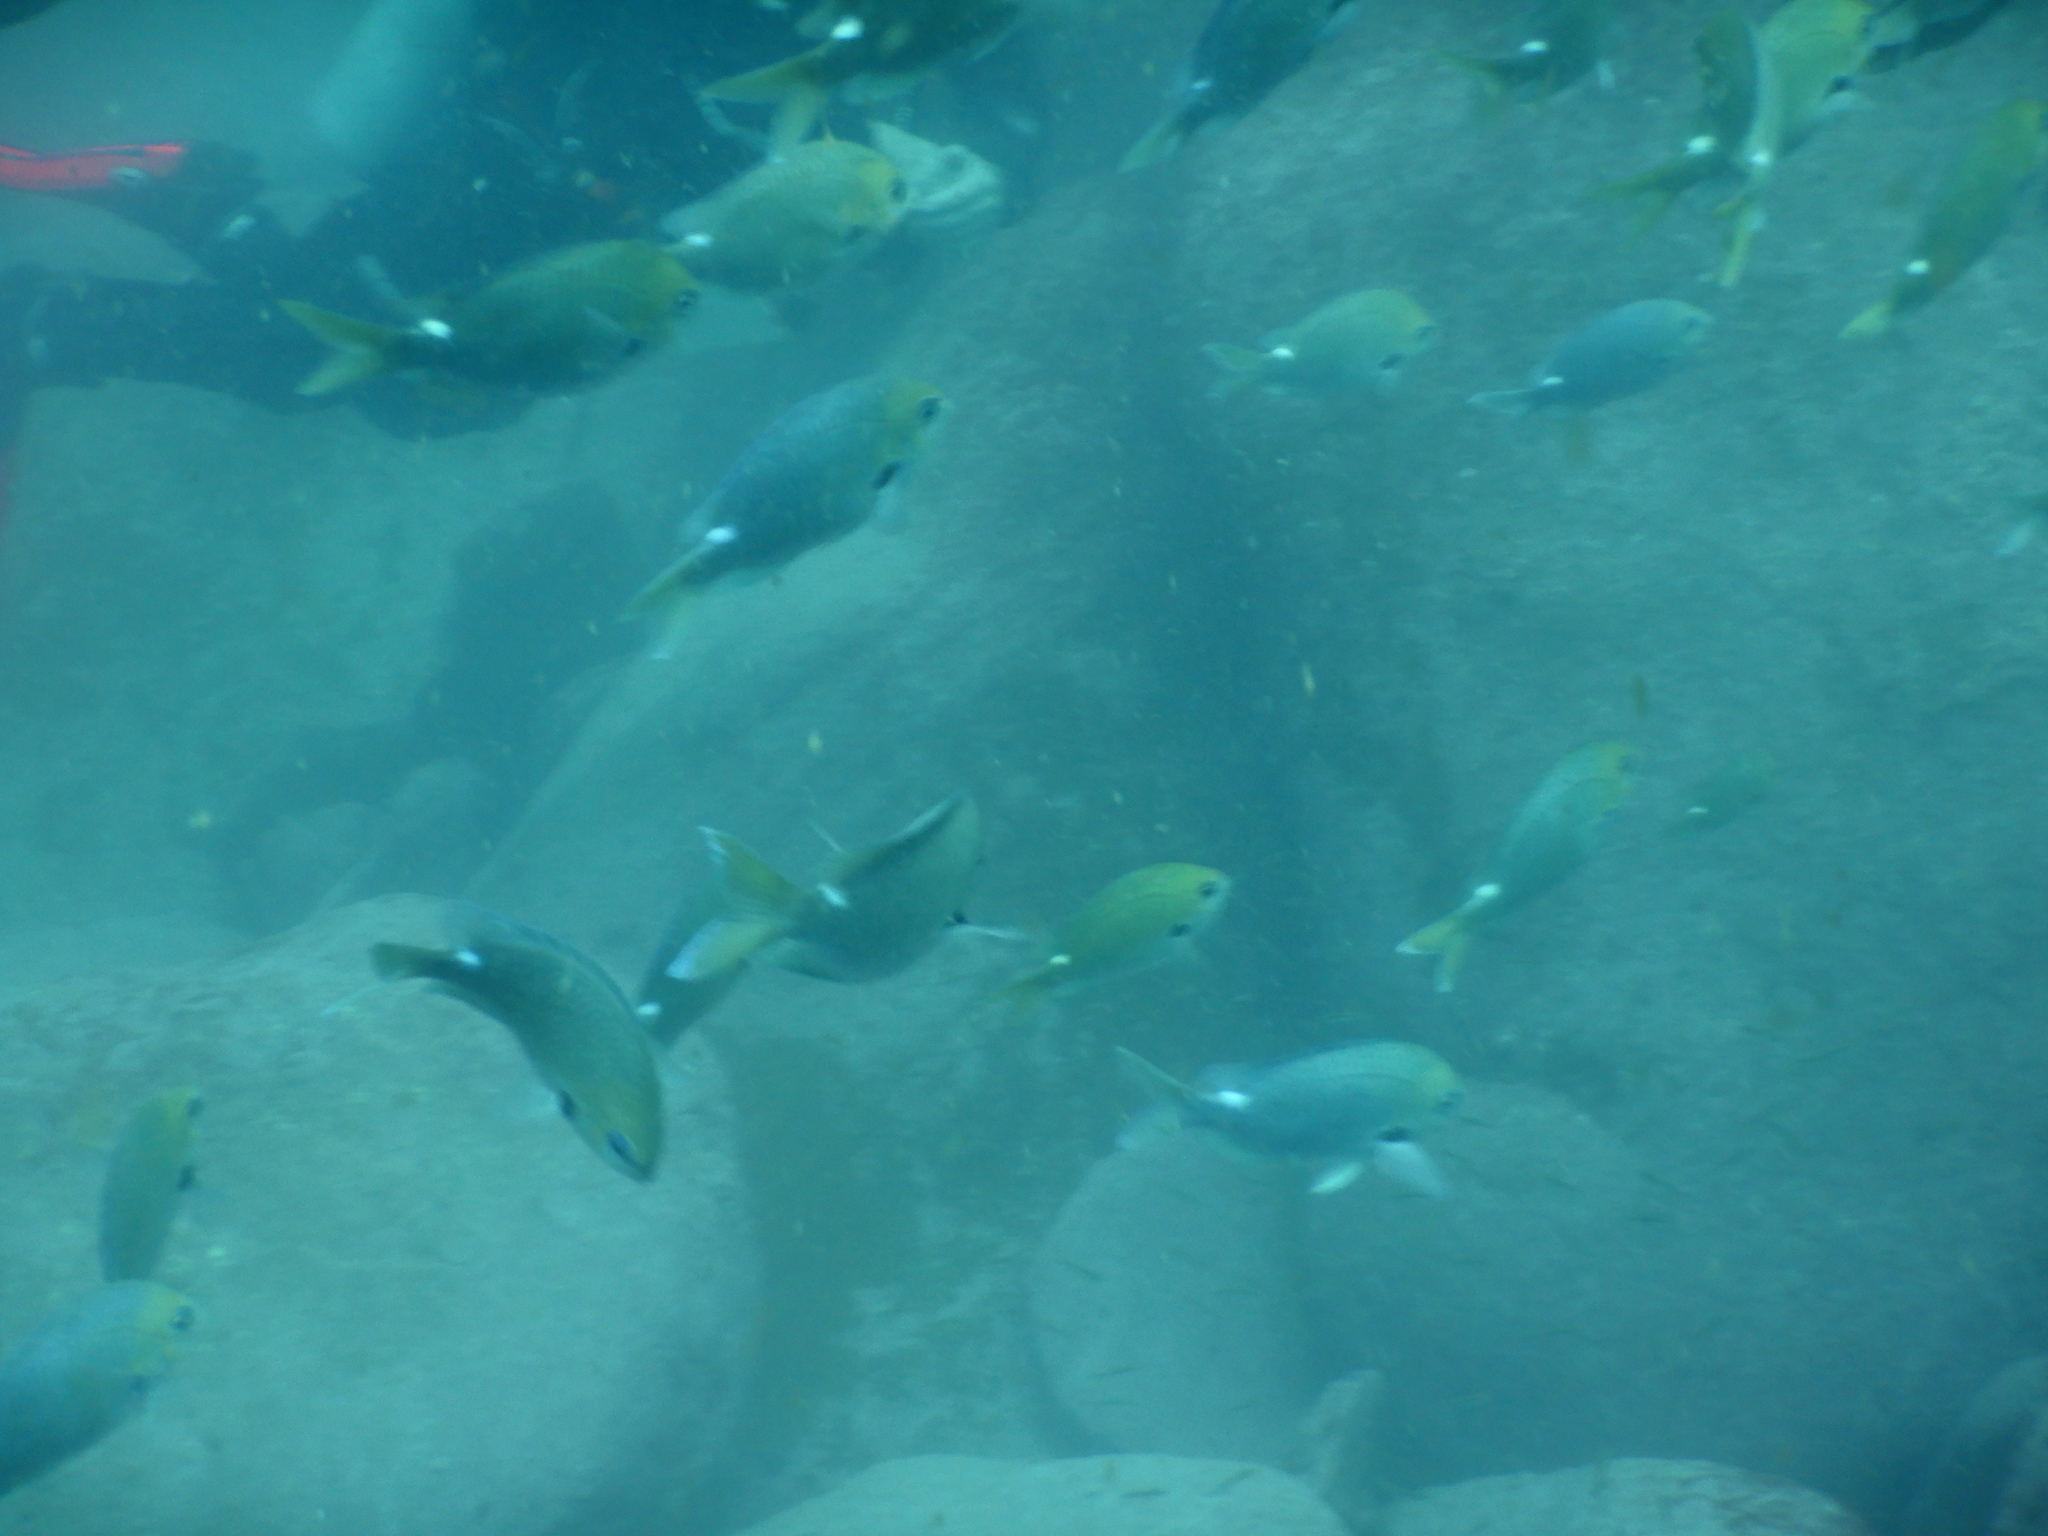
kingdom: Animalia
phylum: Chordata
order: Perciformes
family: Pomacentridae
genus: Chromis
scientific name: Chromis hypsilepis
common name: Brown puller
